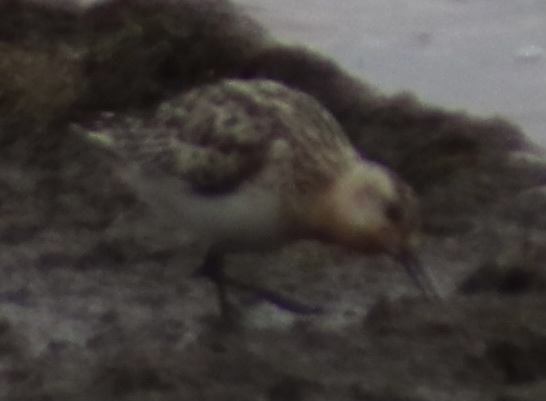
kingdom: Animalia
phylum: Chordata
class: Aves
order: Charadriiformes
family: Scolopacidae
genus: Calidris
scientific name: Calidris alba
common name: Sanderling
